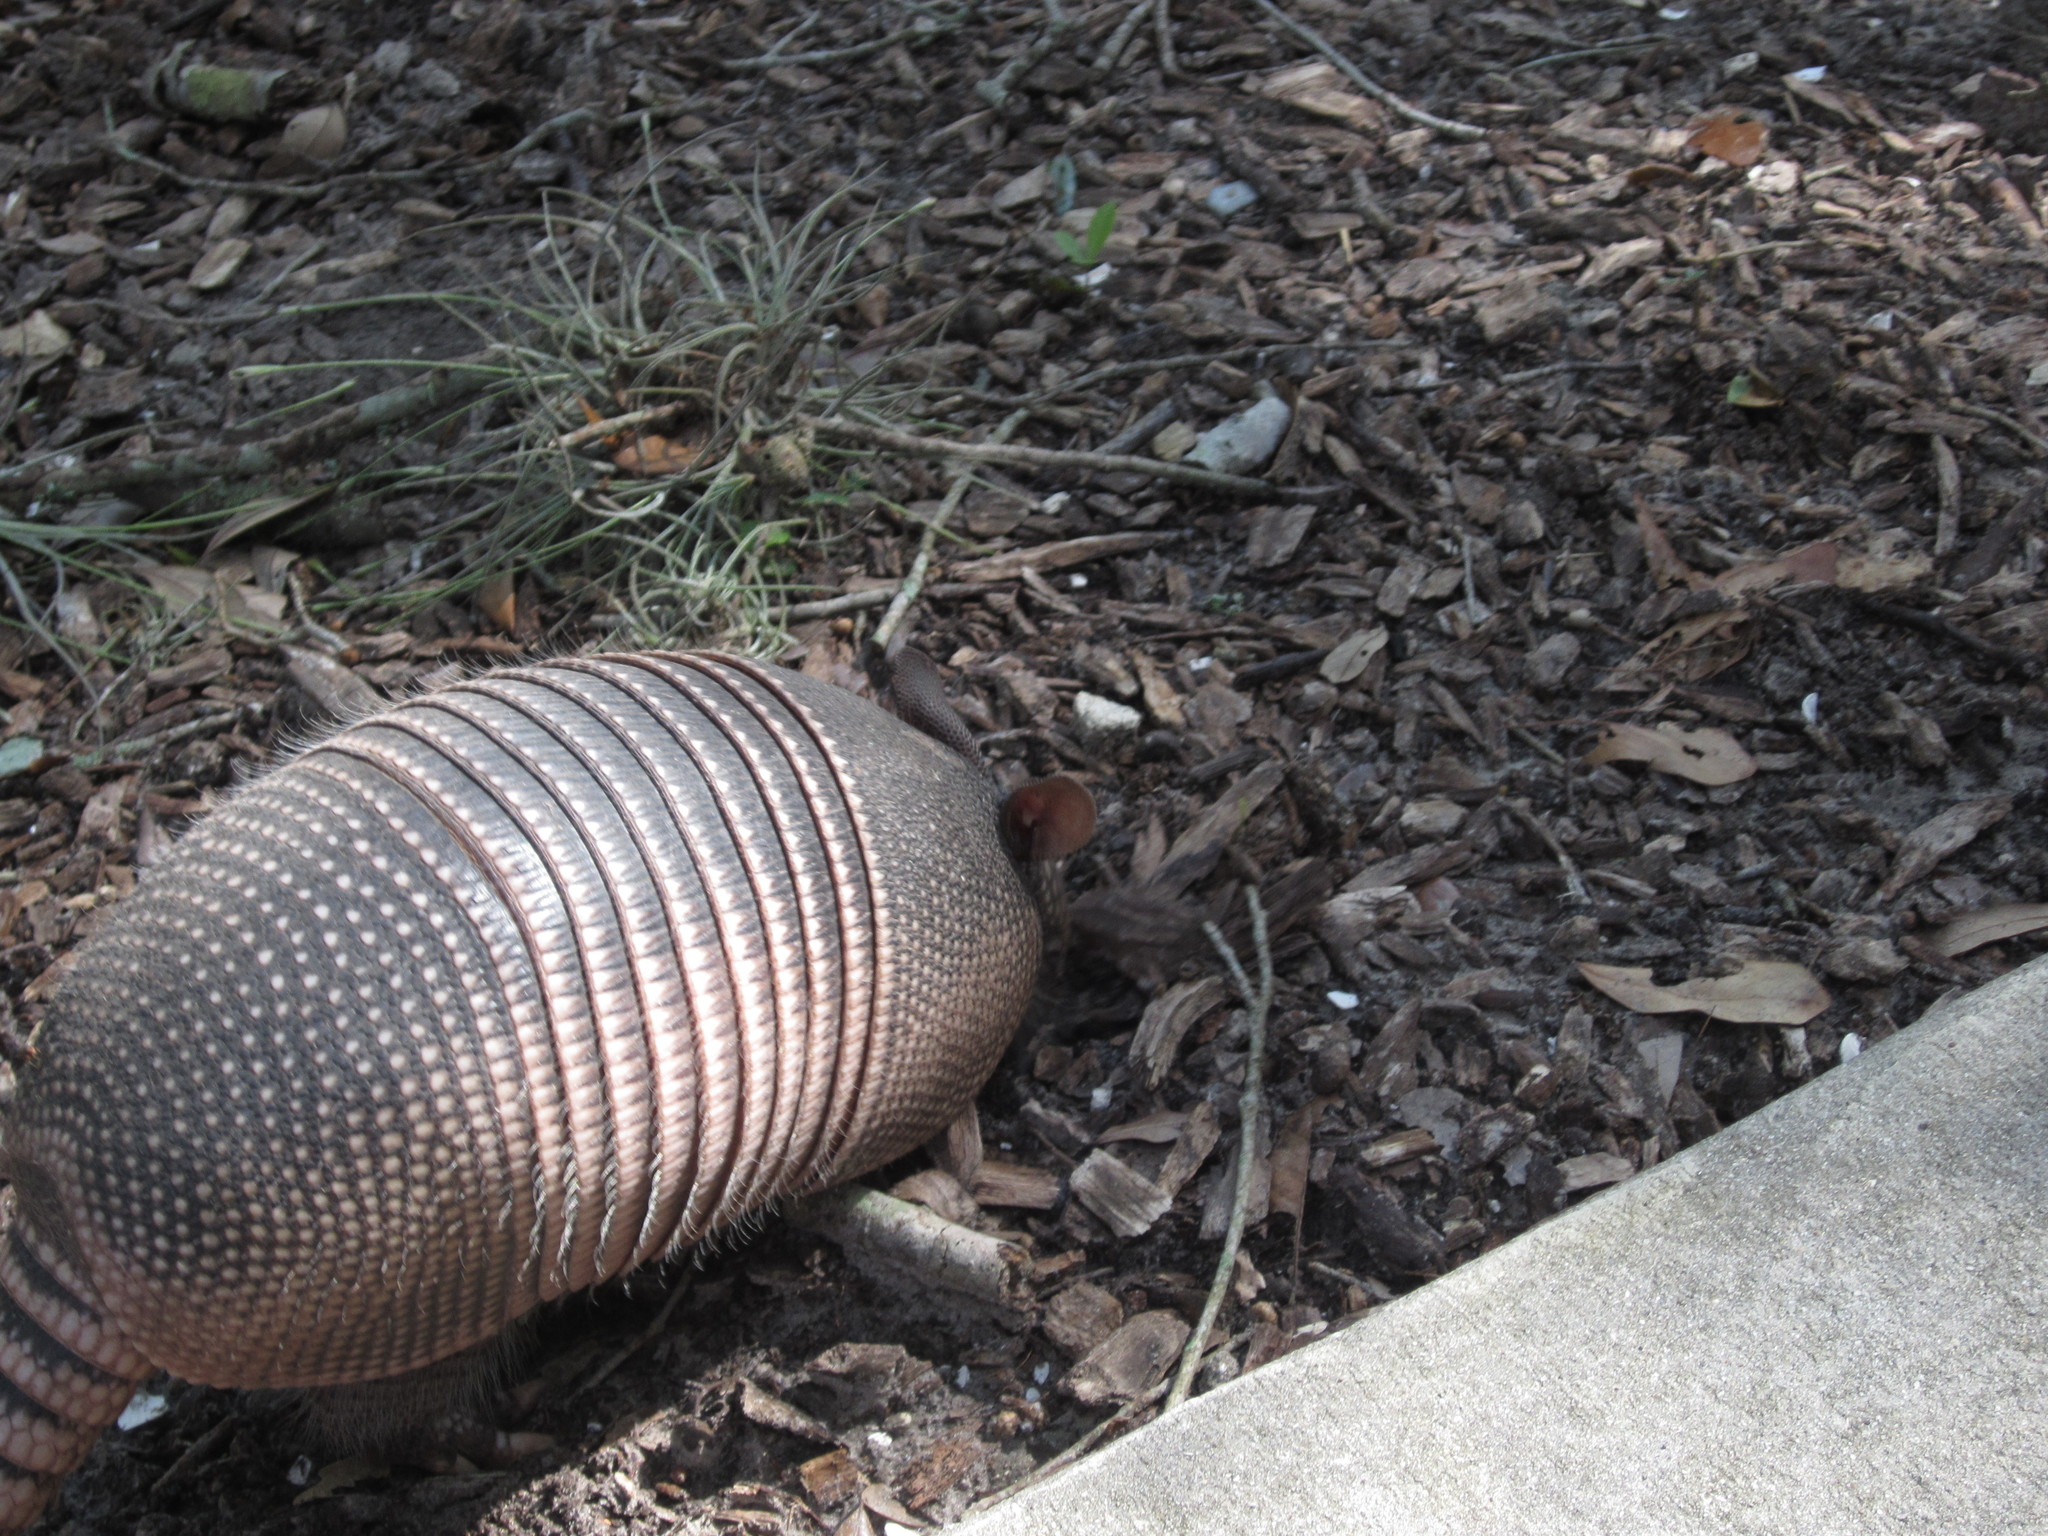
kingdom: Animalia
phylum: Chordata
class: Mammalia
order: Cingulata
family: Dasypodidae
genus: Dasypus
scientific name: Dasypus novemcinctus
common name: Nine-banded armadillo
